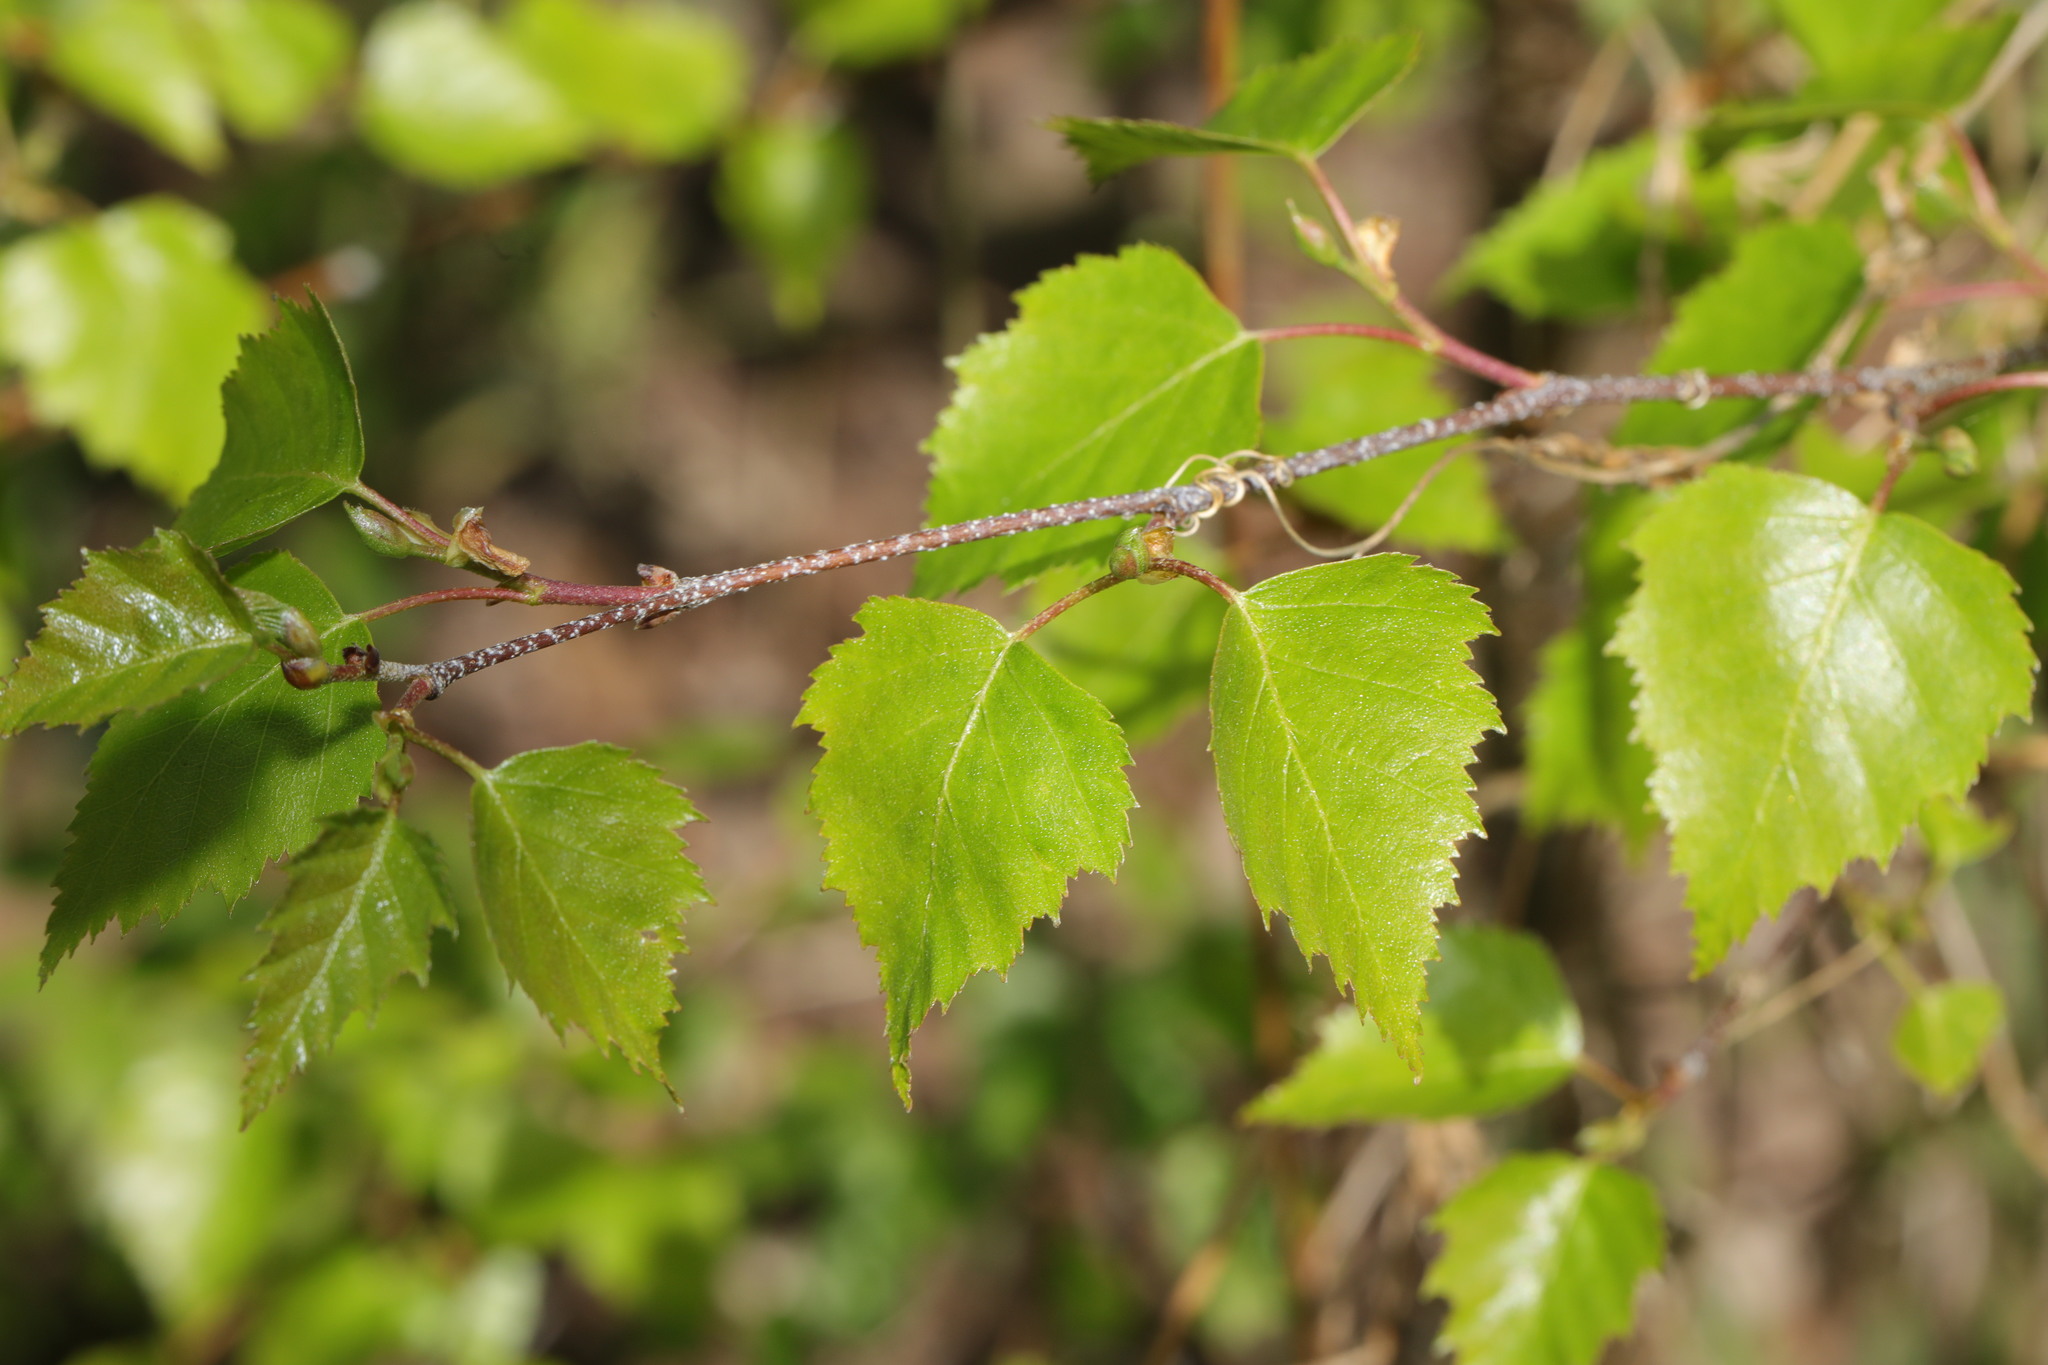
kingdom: Plantae
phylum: Tracheophyta
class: Magnoliopsida
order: Fagales
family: Betulaceae
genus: Betula
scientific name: Betula pendula
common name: Silver birch
